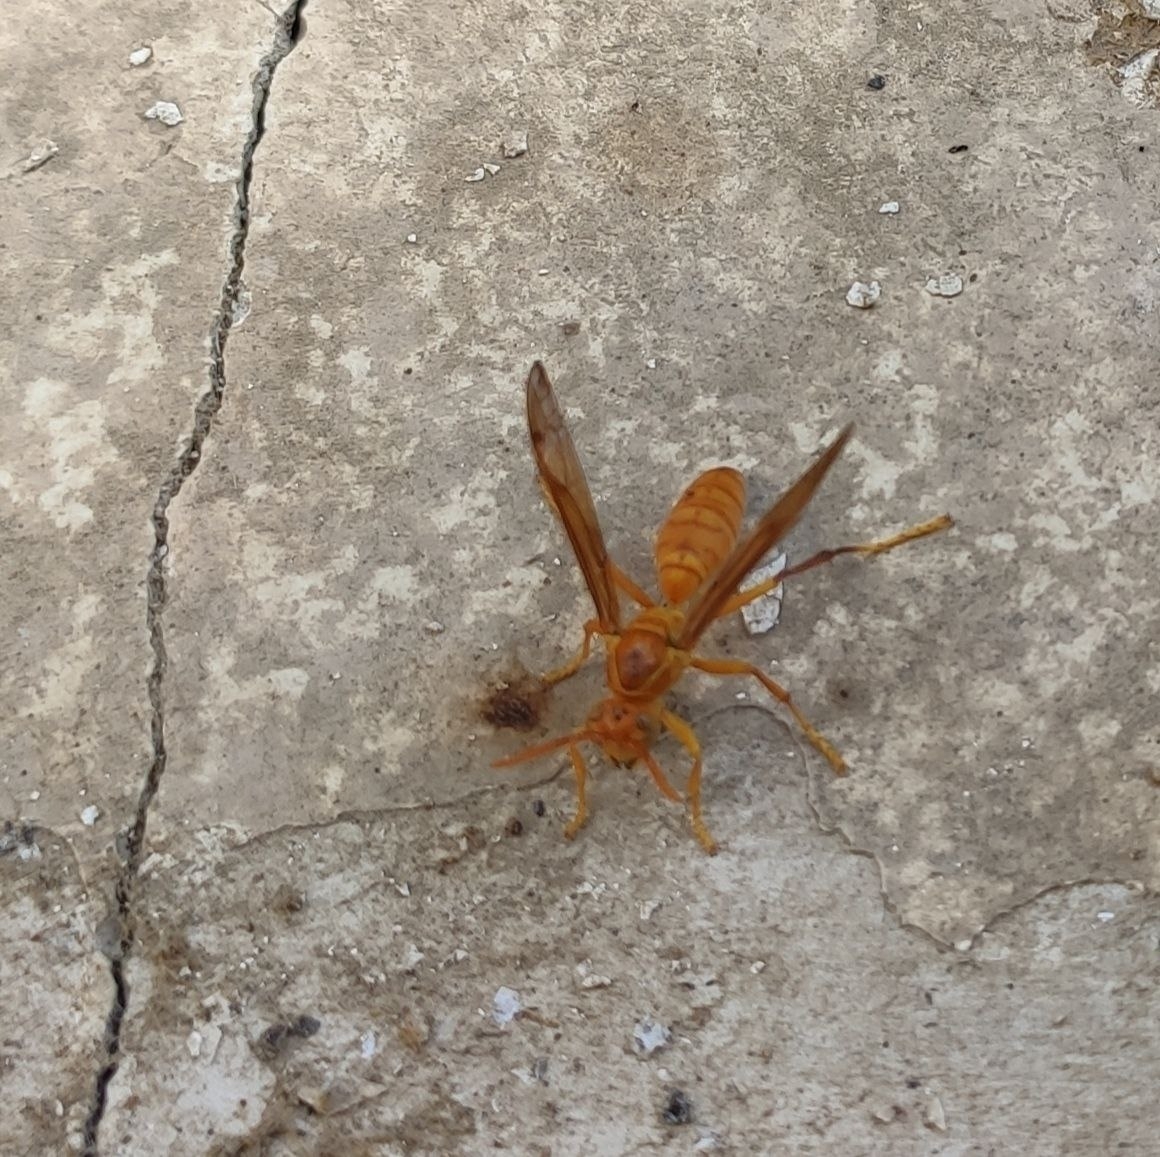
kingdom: Animalia
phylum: Arthropoda
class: Insecta
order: Hymenoptera
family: Eumenidae
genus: Polistes
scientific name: Polistes wattii
